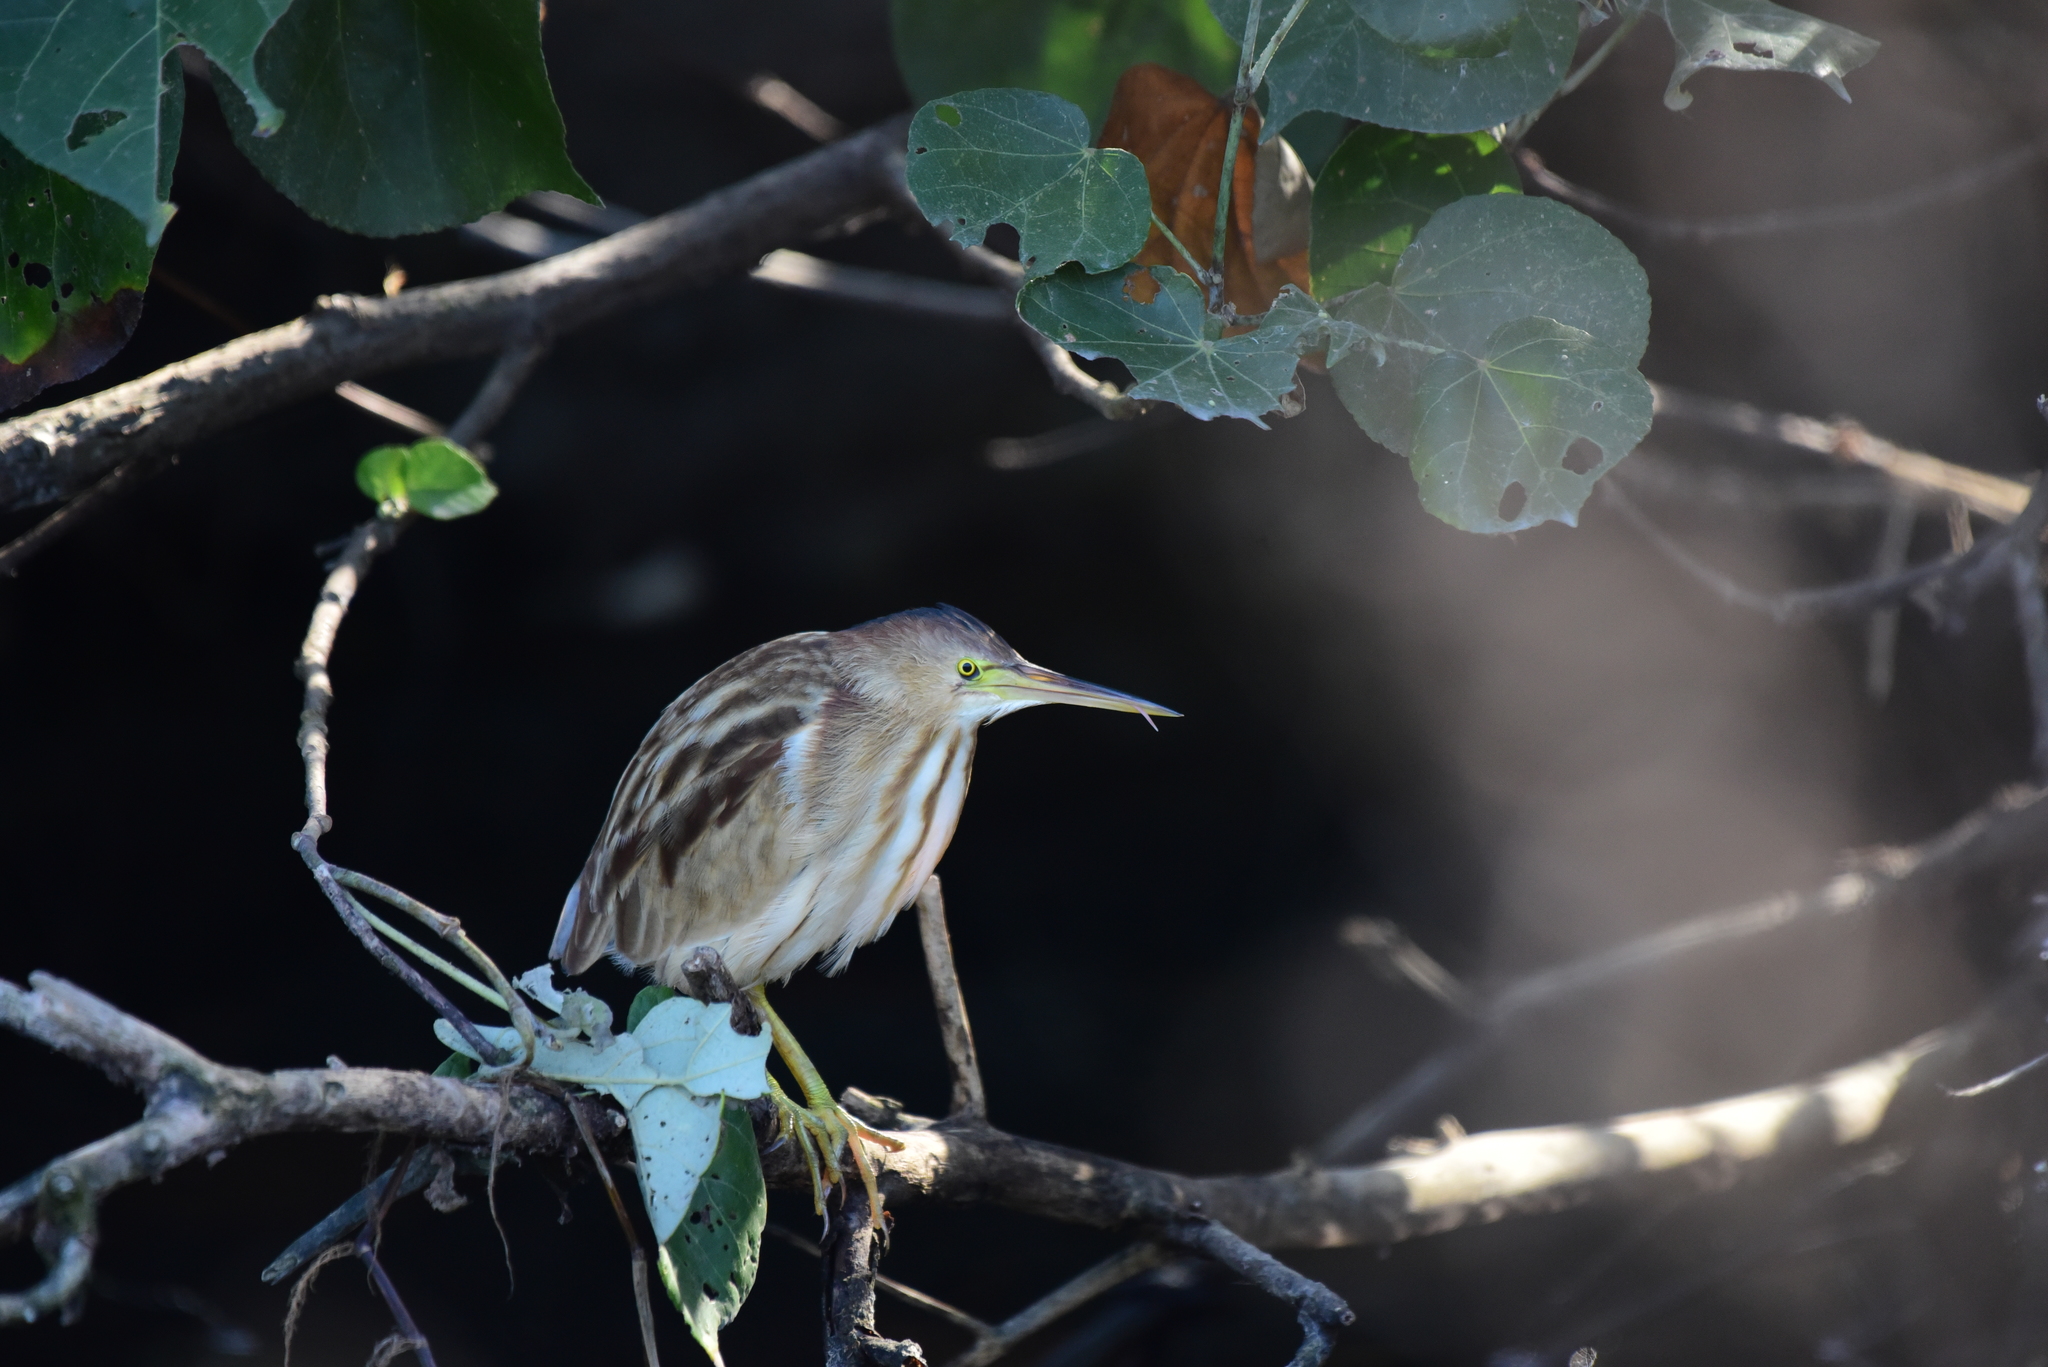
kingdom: Animalia
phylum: Chordata
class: Aves
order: Pelecaniformes
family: Ardeidae
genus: Ixobrychus
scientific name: Ixobrychus sinensis
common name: Yellow bittern
